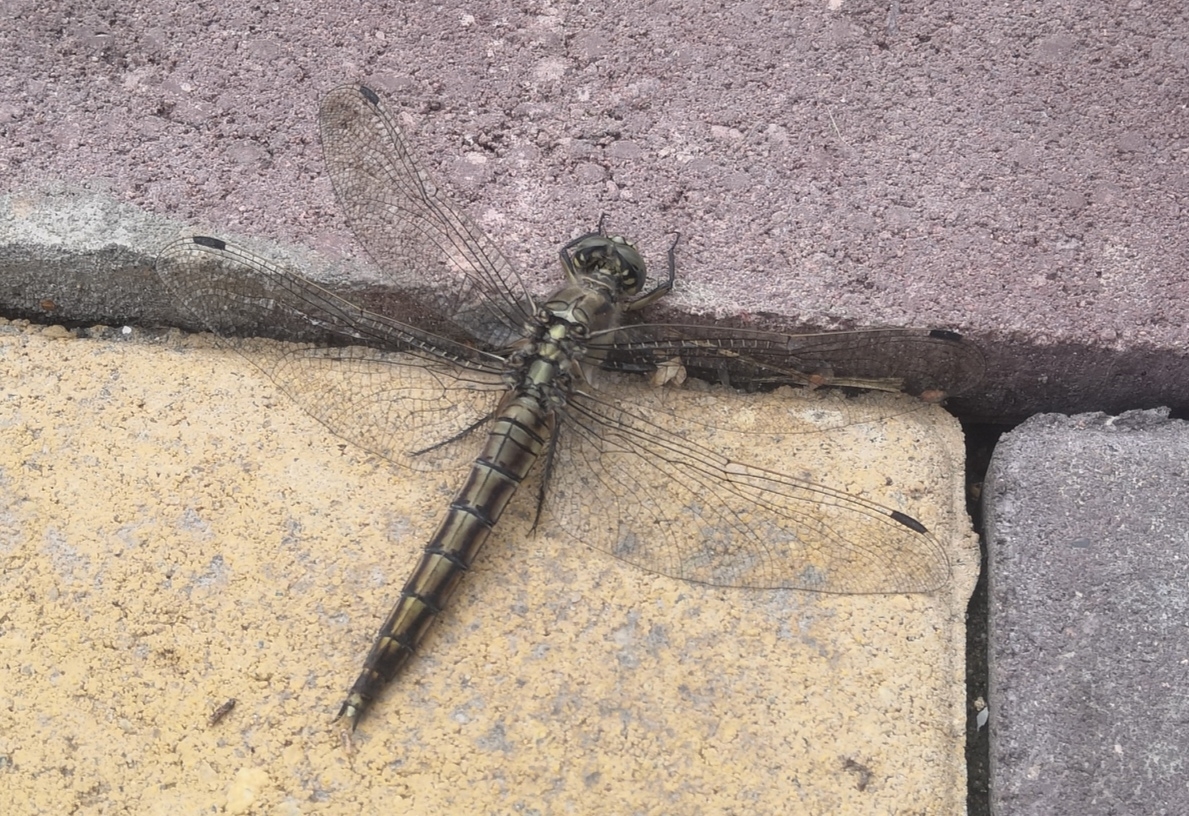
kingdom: Animalia
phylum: Arthropoda
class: Insecta
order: Odonata
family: Libellulidae
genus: Orthetrum
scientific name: Orthetrum cancellatum
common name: Black-tailed skimmer
